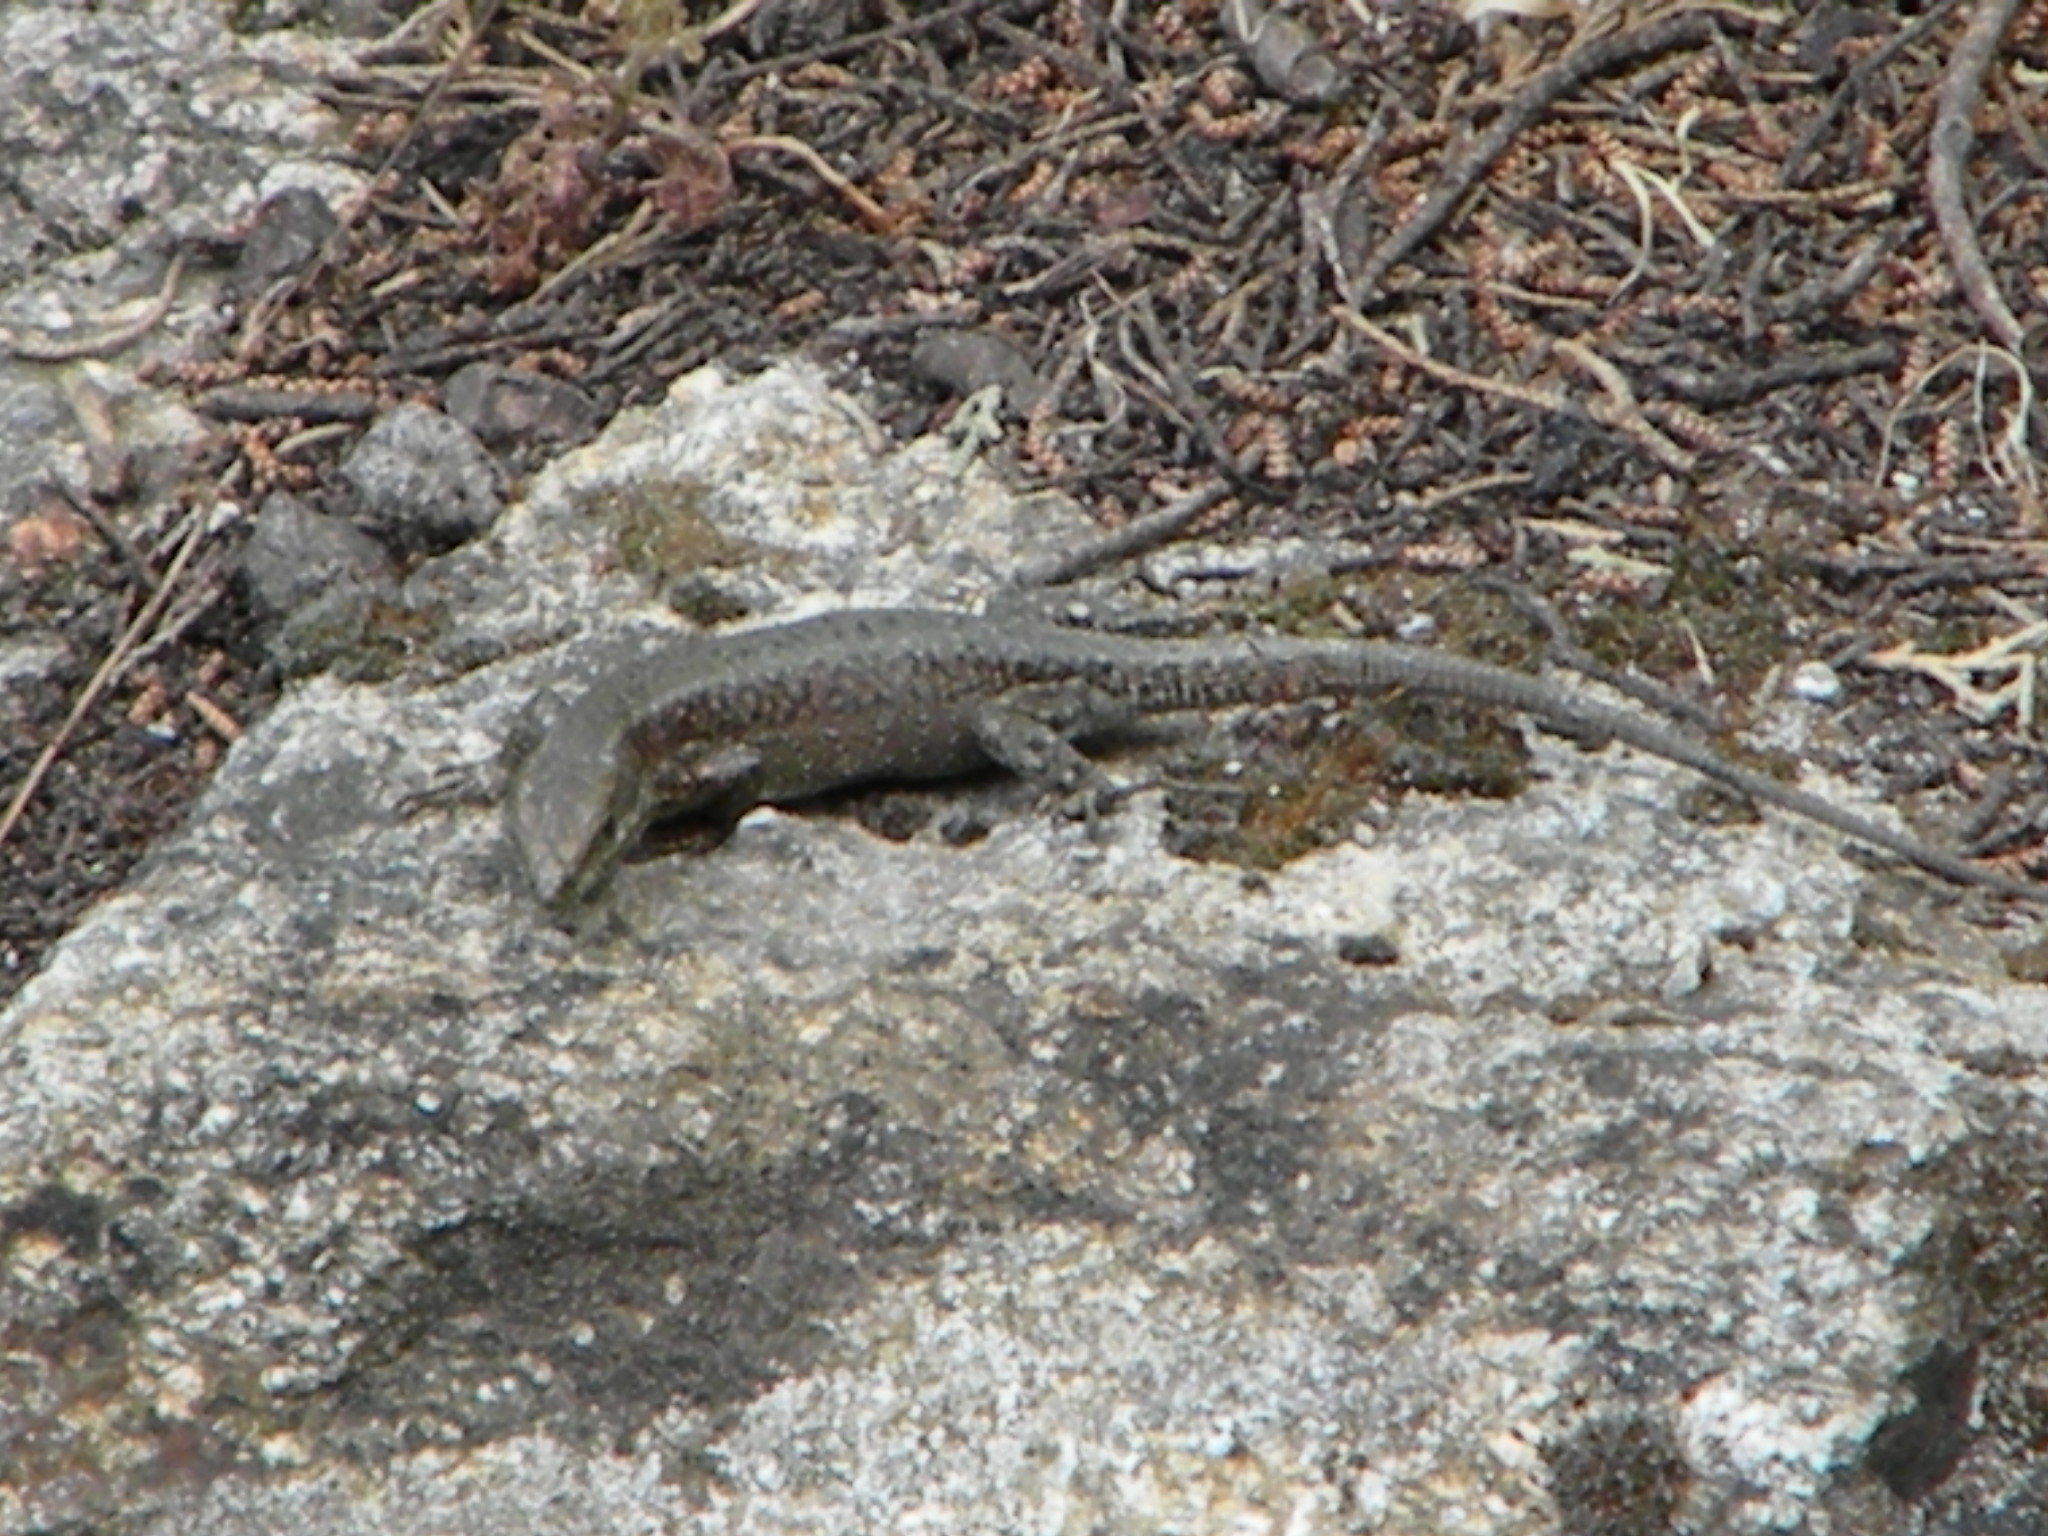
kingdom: Animalia
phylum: Chordata
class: Squamata
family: Lacertidae
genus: Anatololacerta
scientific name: Anatololacerta anatolica
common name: Anatolian rock lizard
